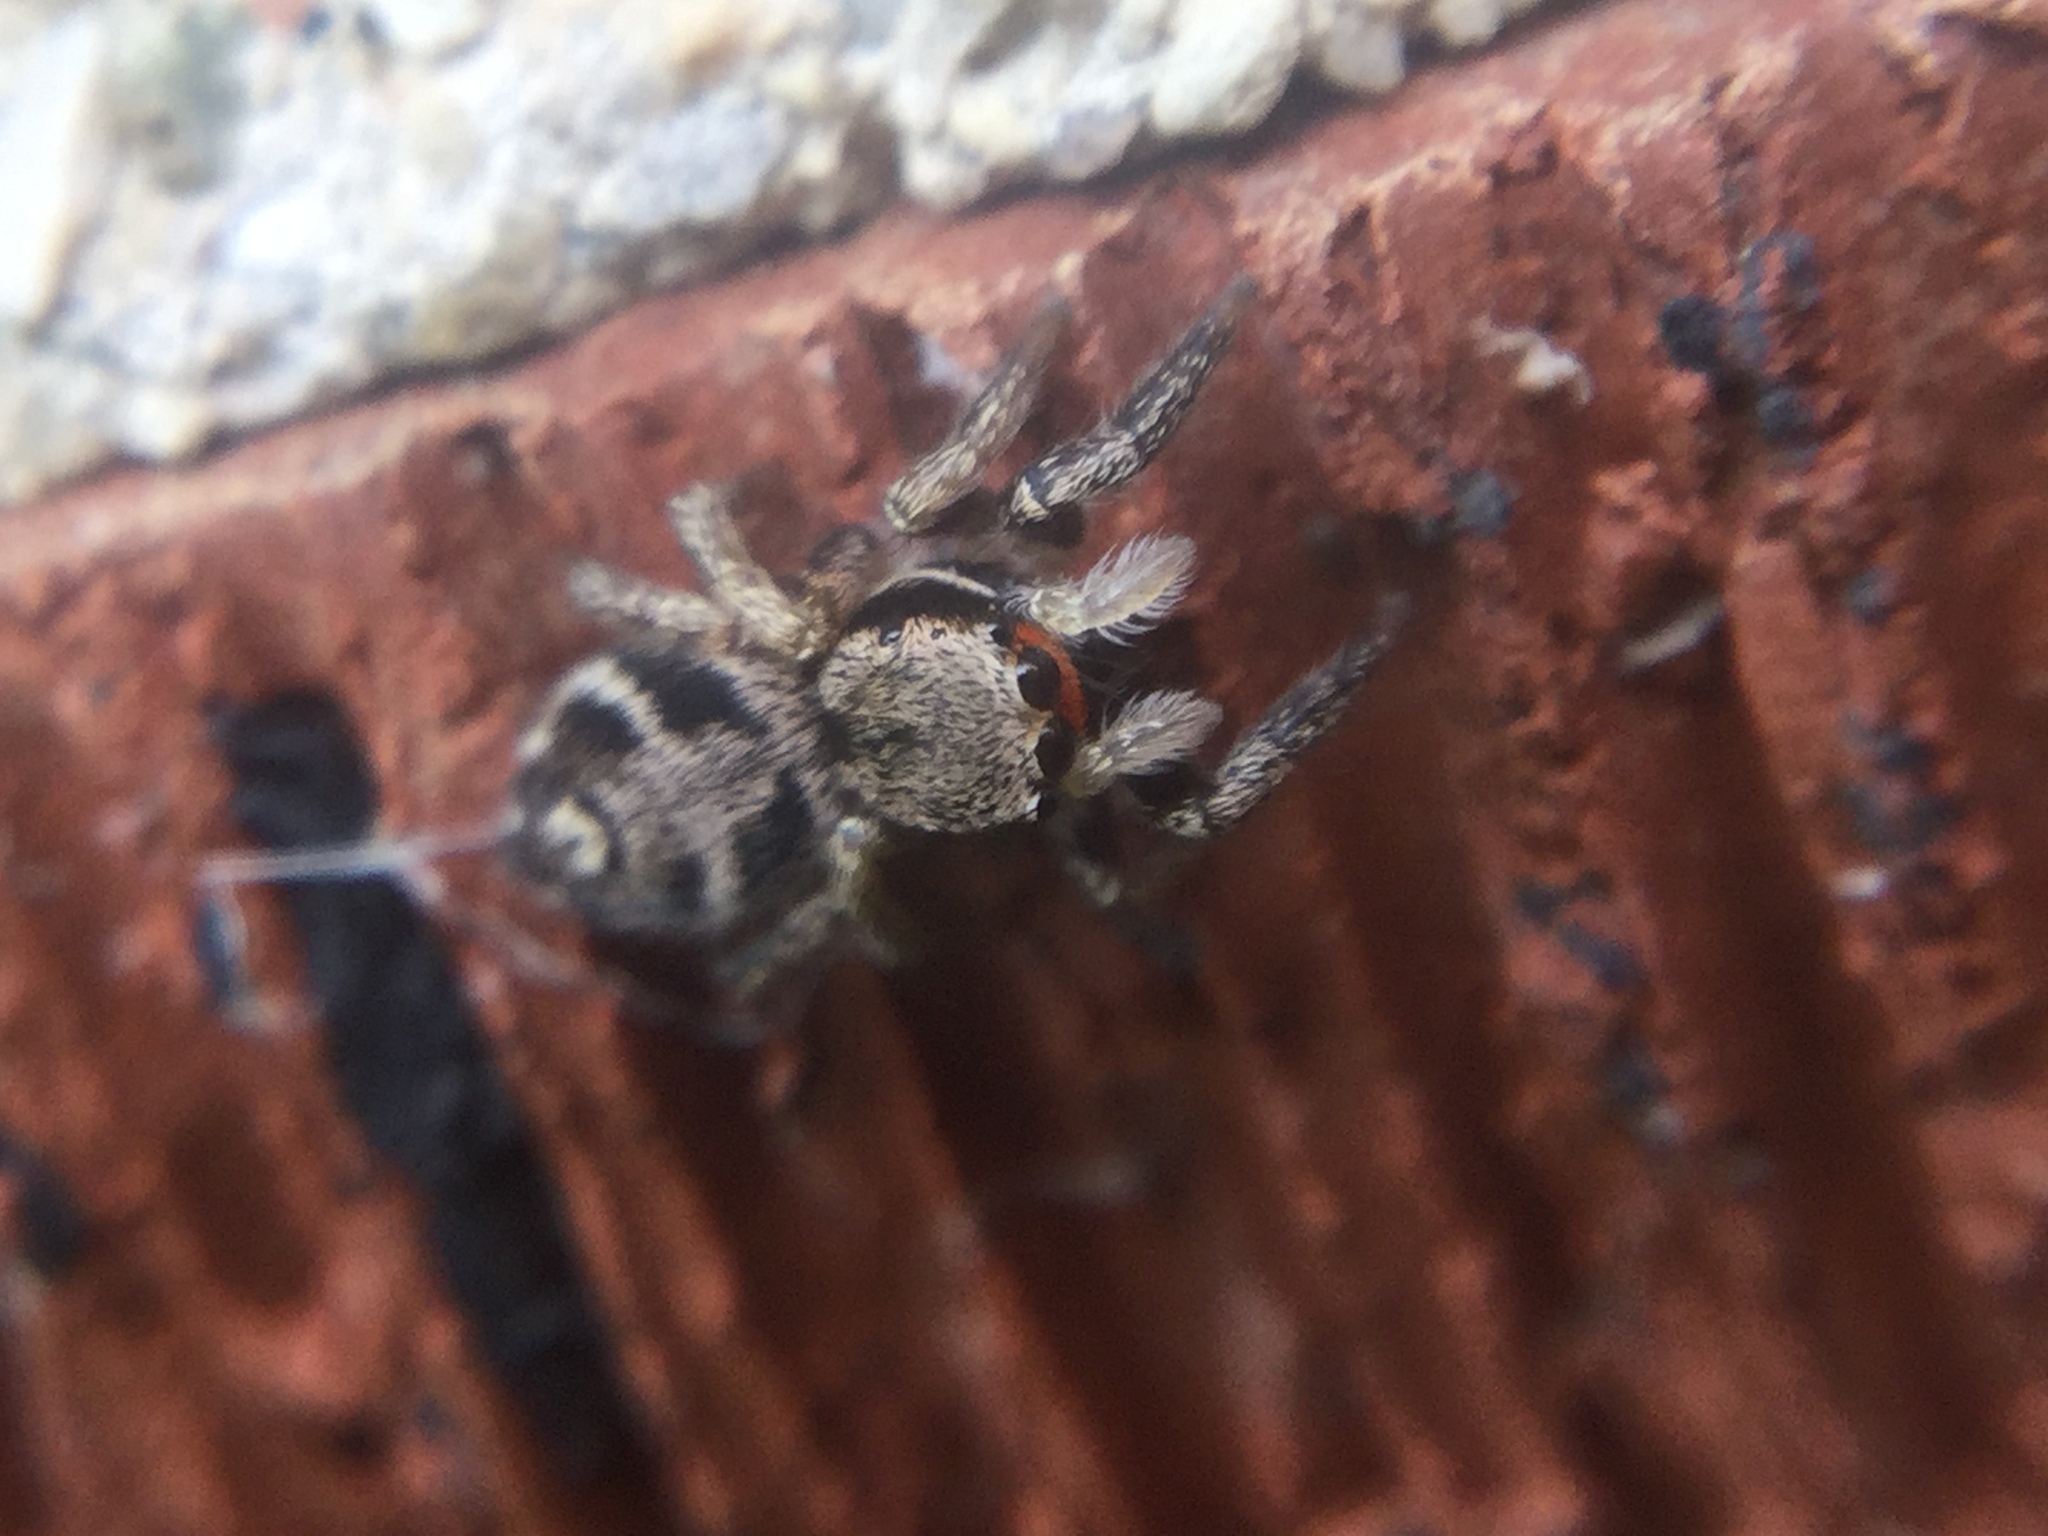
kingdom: Animalia
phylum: Arthropoda
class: Arachnida
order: Araneae
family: Salticidae
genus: Habronattus
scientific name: Habronattus coecatus
